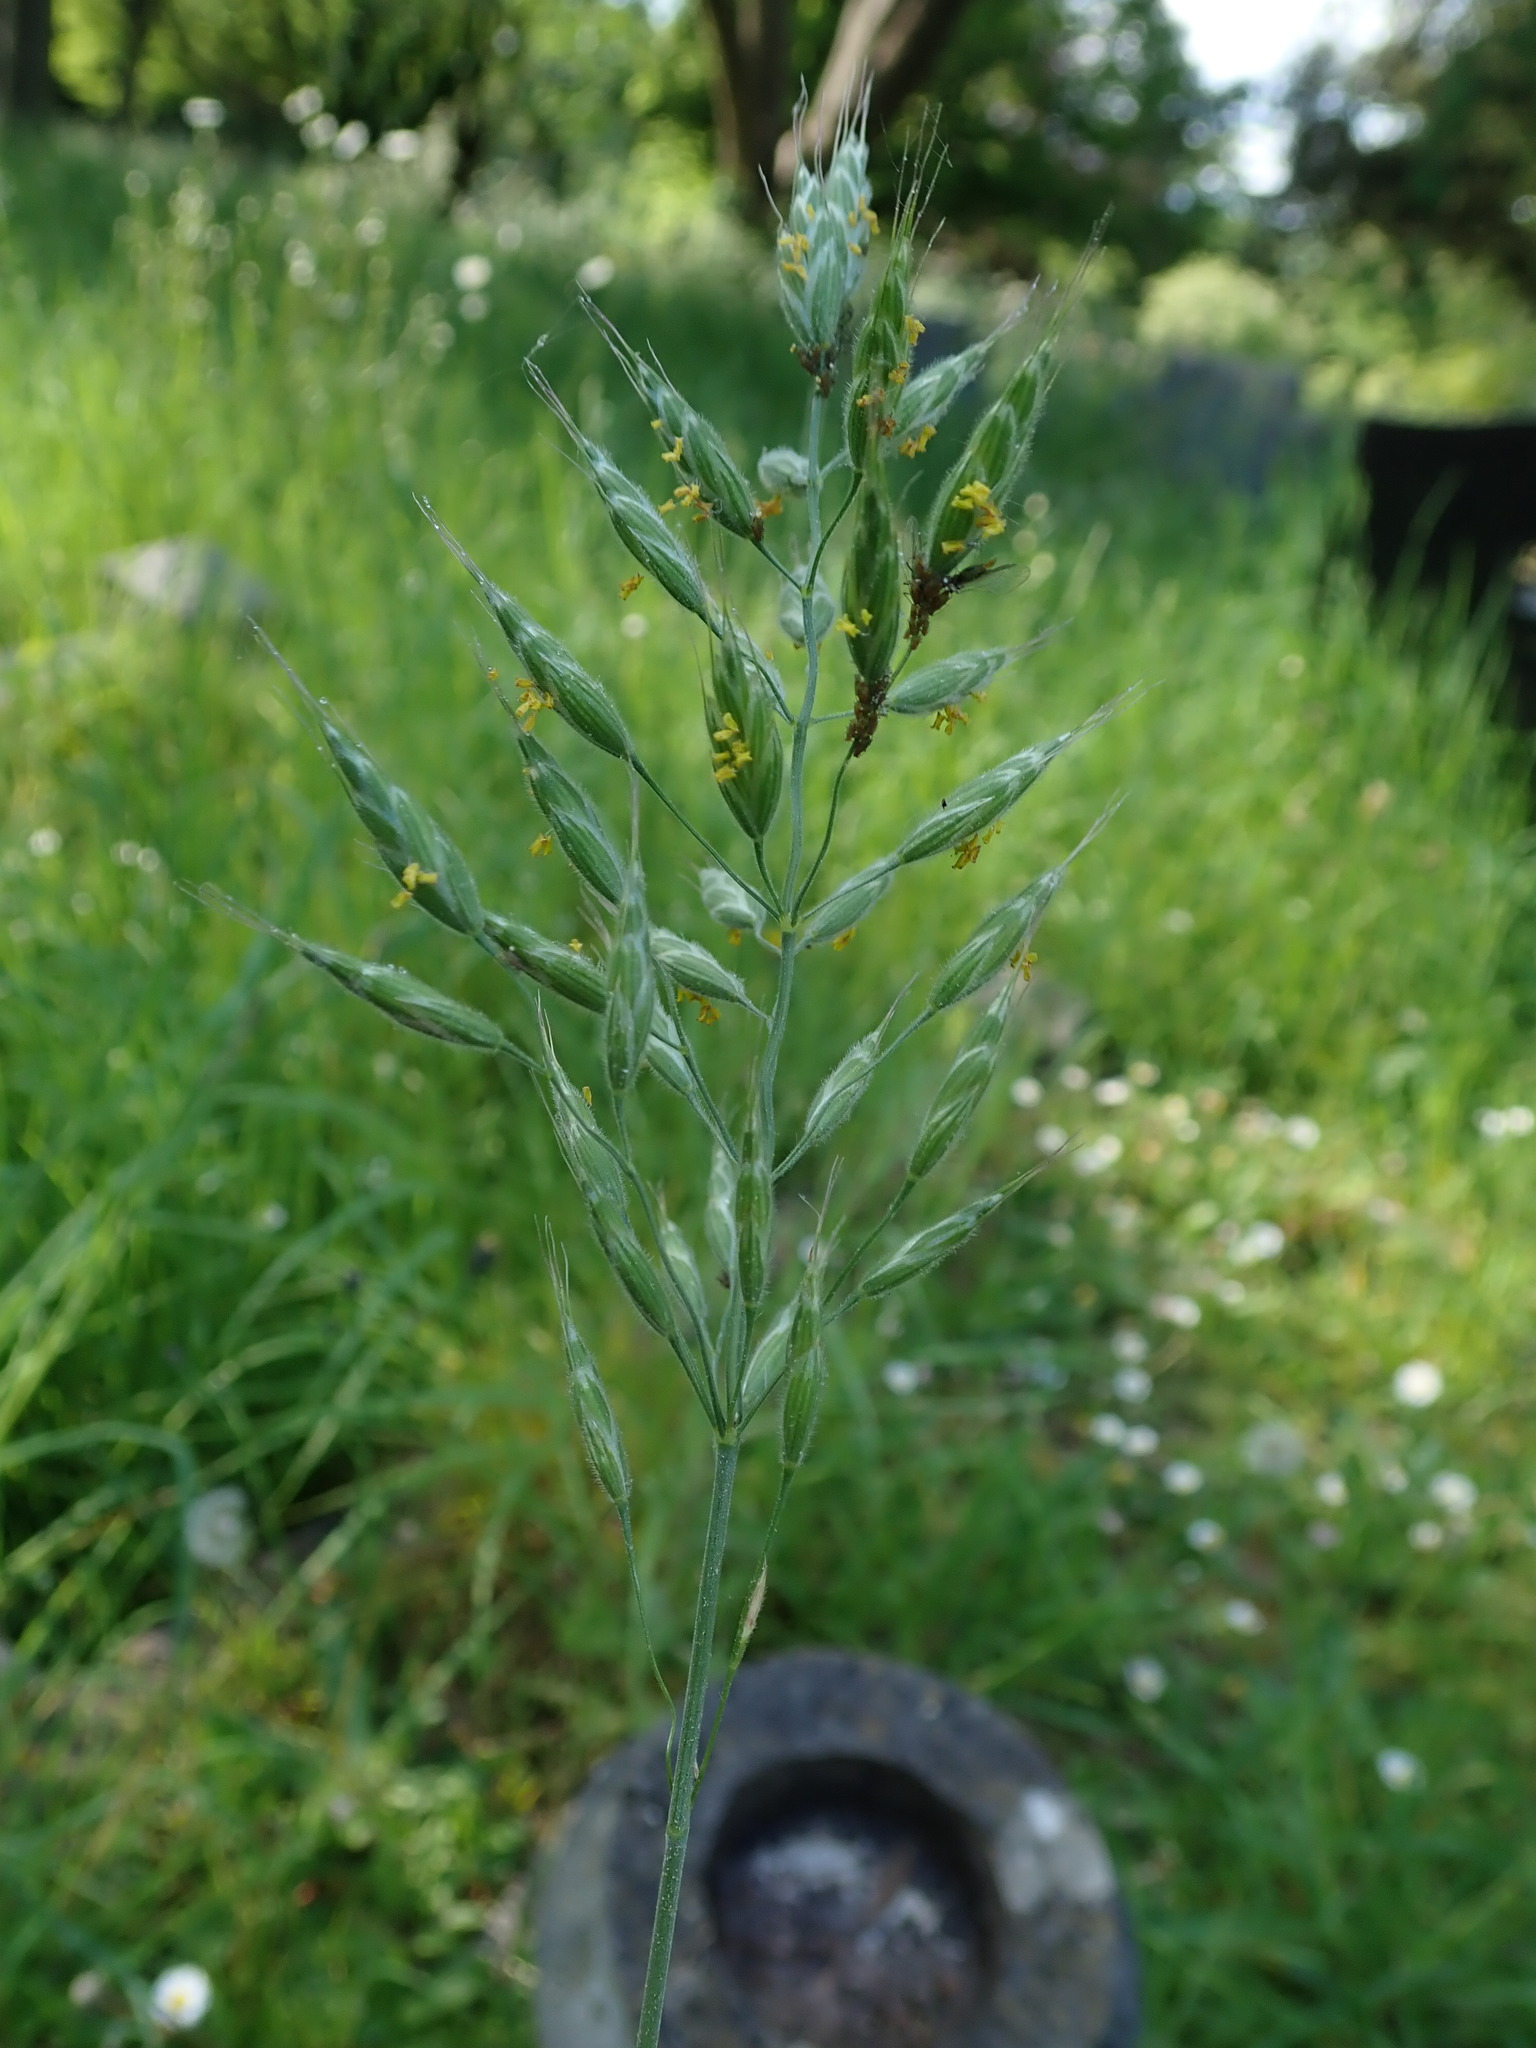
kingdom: Plantae
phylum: Tracheophyta
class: Liliopsida
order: Poales
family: Poaceae
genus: Bromus
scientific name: Bromus hordeaceus
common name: Soft brome
